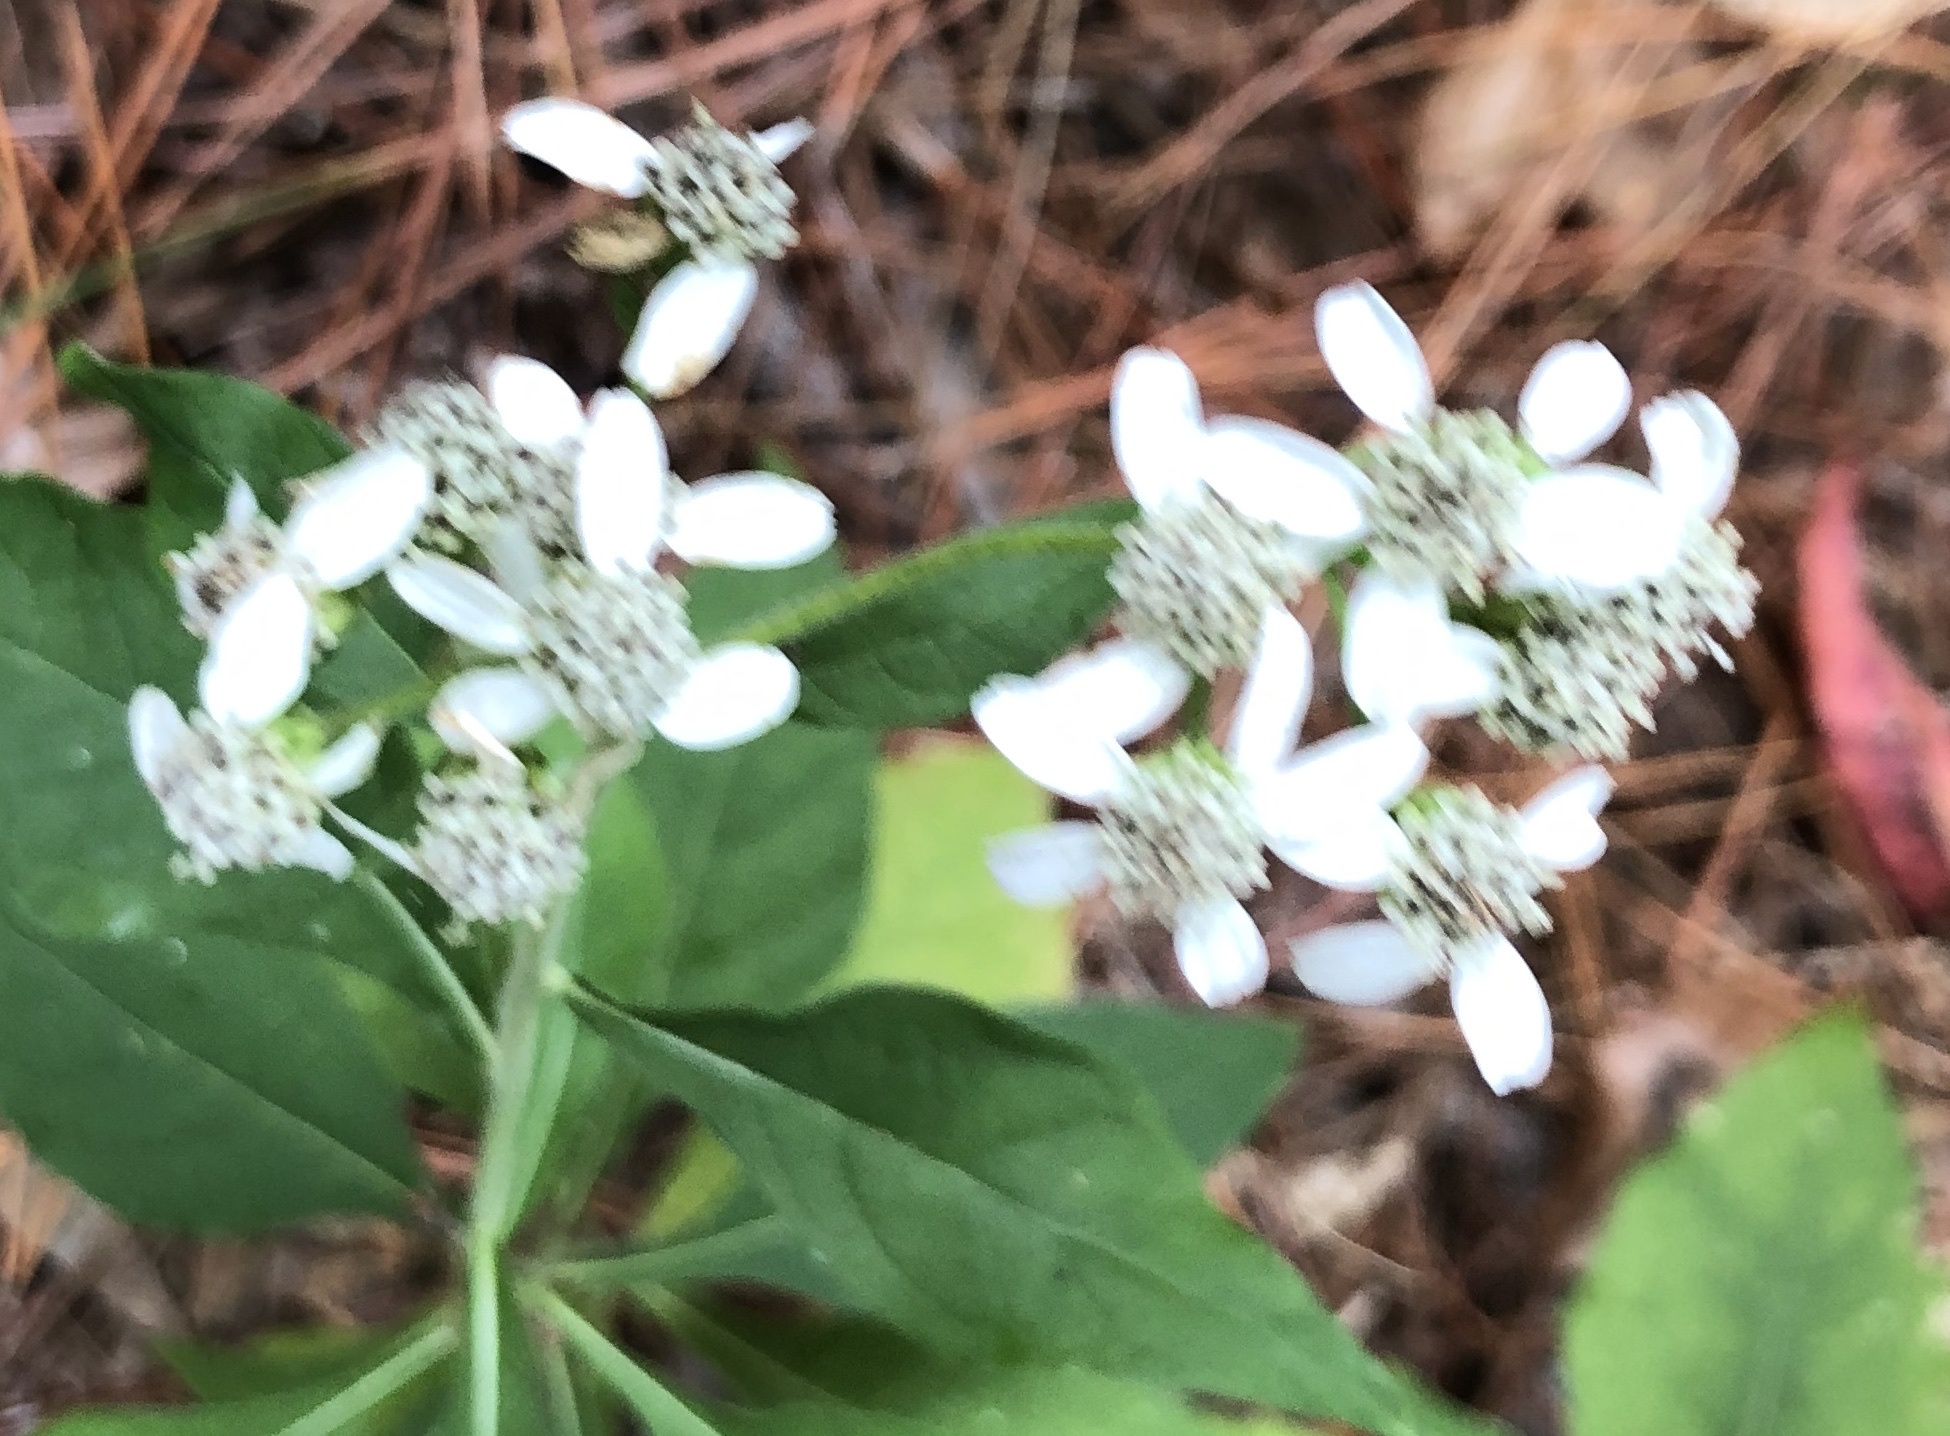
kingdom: Plantae
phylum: Tracheophyta
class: Magnoliopsida
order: Asterales
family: Asteraceae
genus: Verbesina
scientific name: Verbesina virginica
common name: Frostweed
